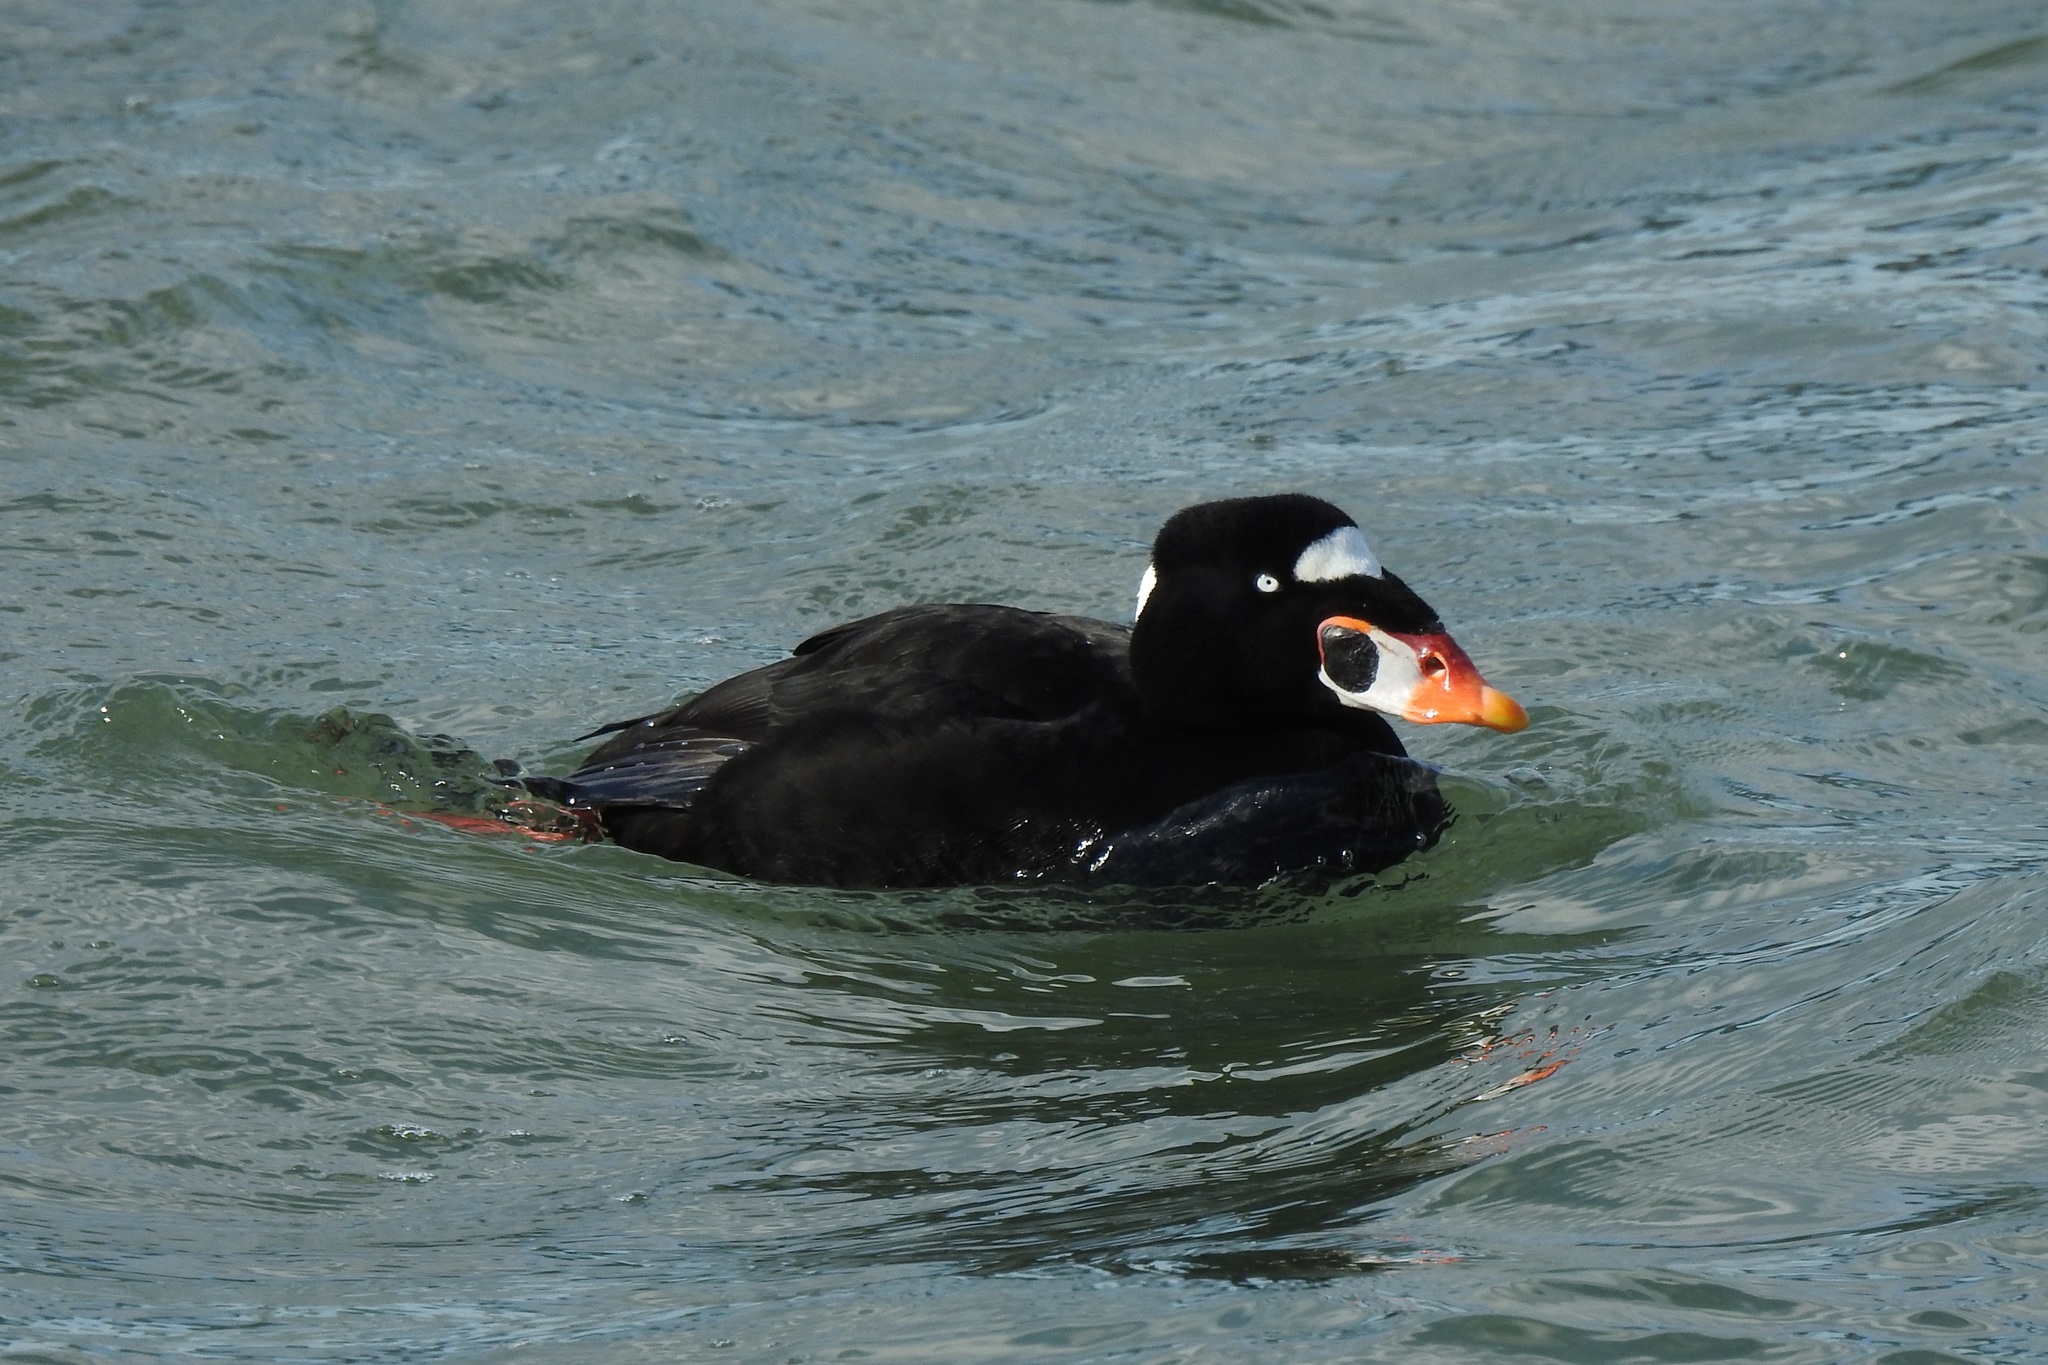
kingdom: Animalia
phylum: Chordata
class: Aves
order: Anseriformes
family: Anatidae
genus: Melanitta
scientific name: Melanitta perspicillata
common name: Surf scoter
